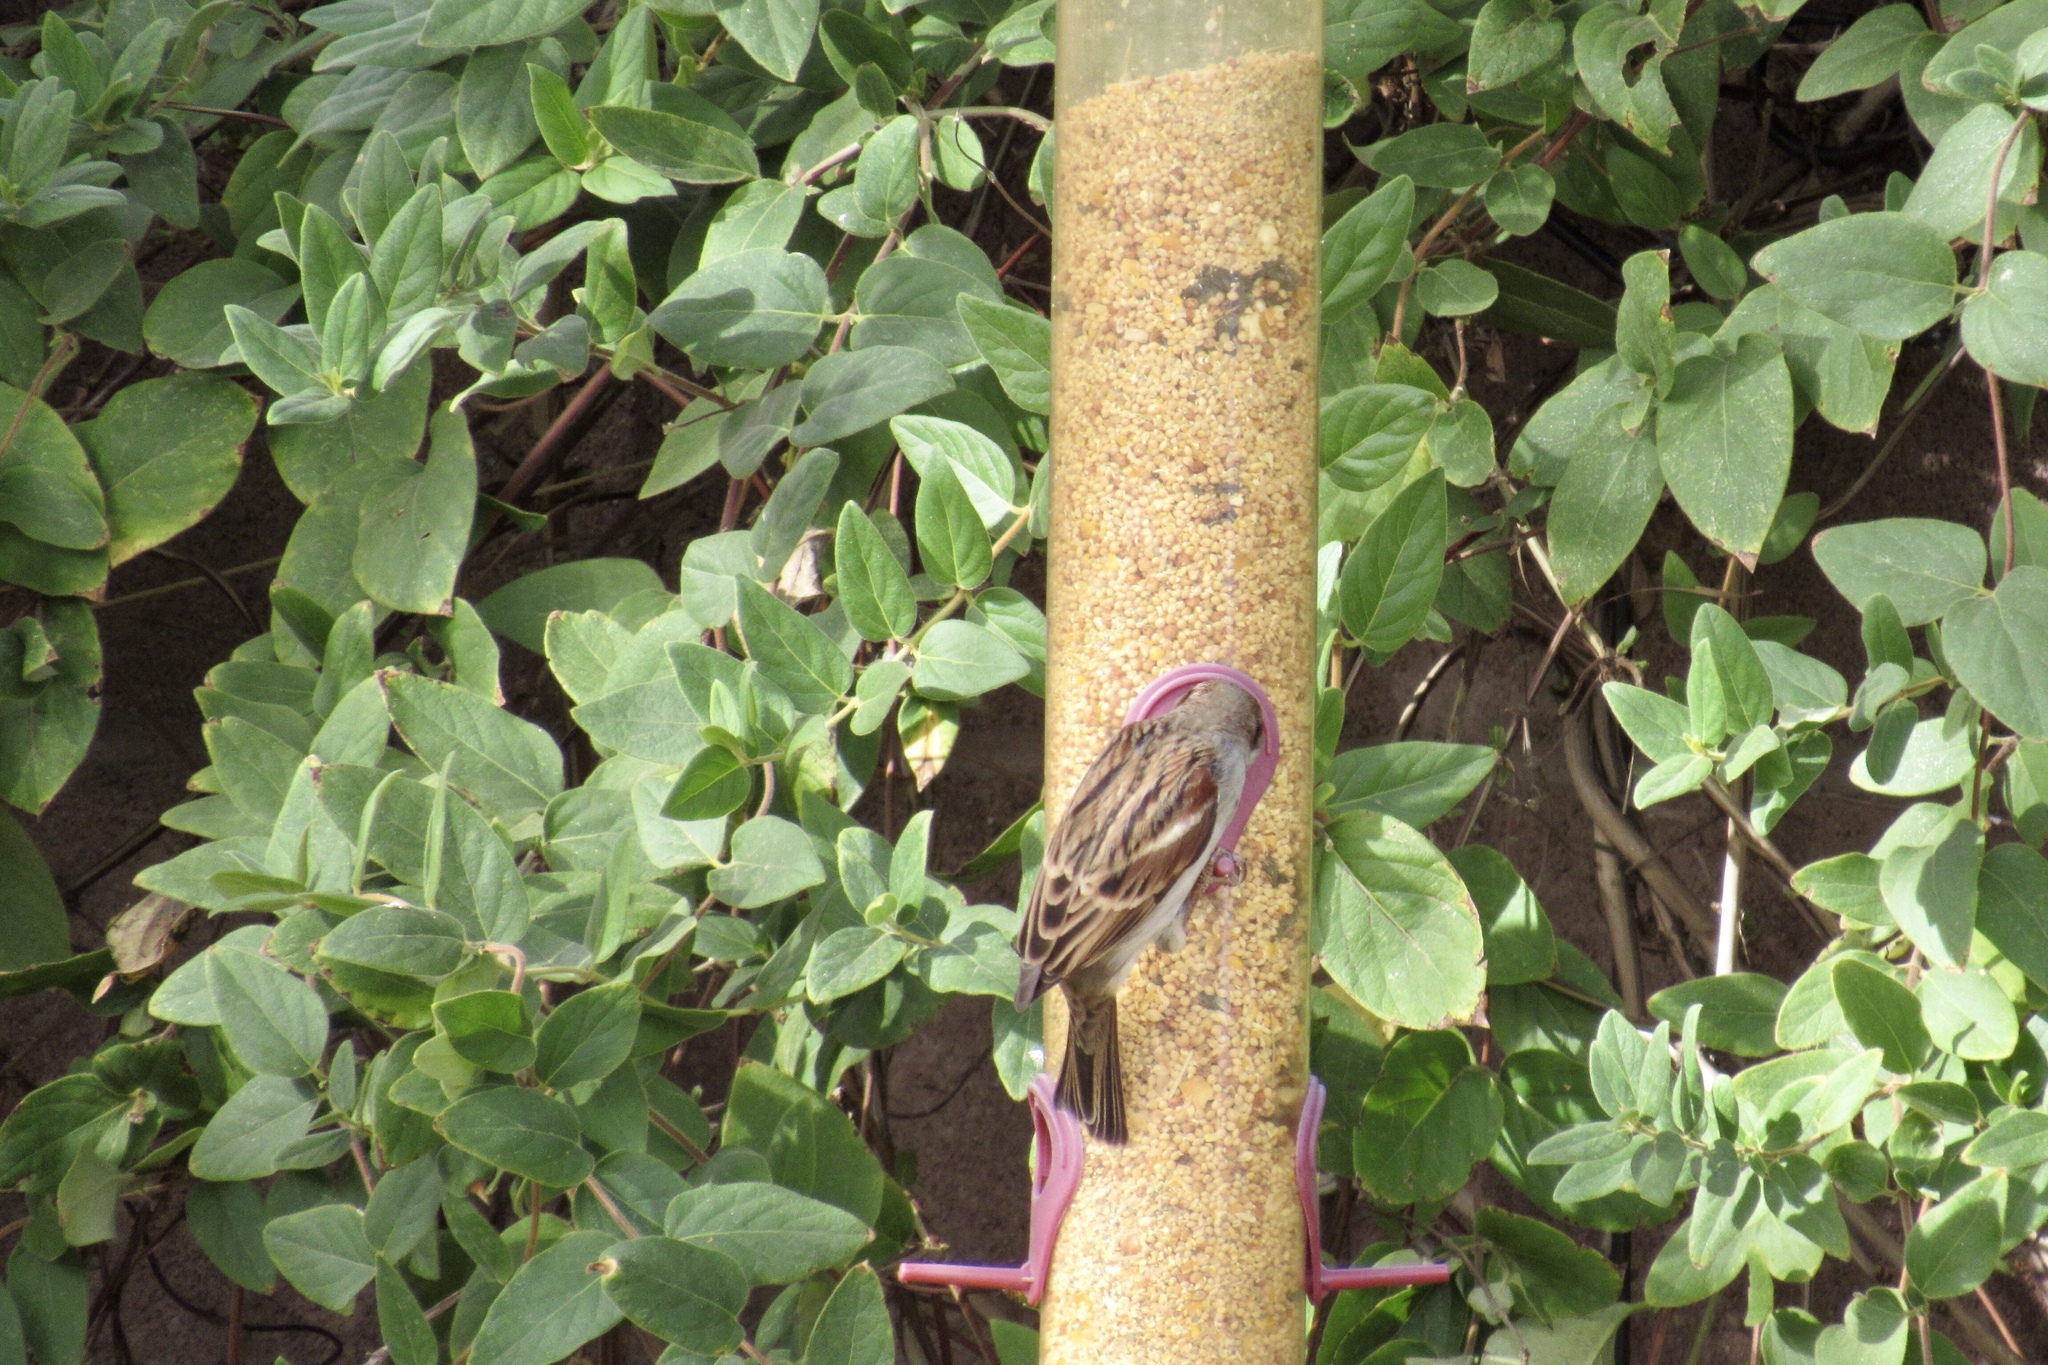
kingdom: Animalia
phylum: Chordata
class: Aves
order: Passeriformes
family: Passeridae
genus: Passer
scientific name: Passer domesticus
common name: House sparrow
